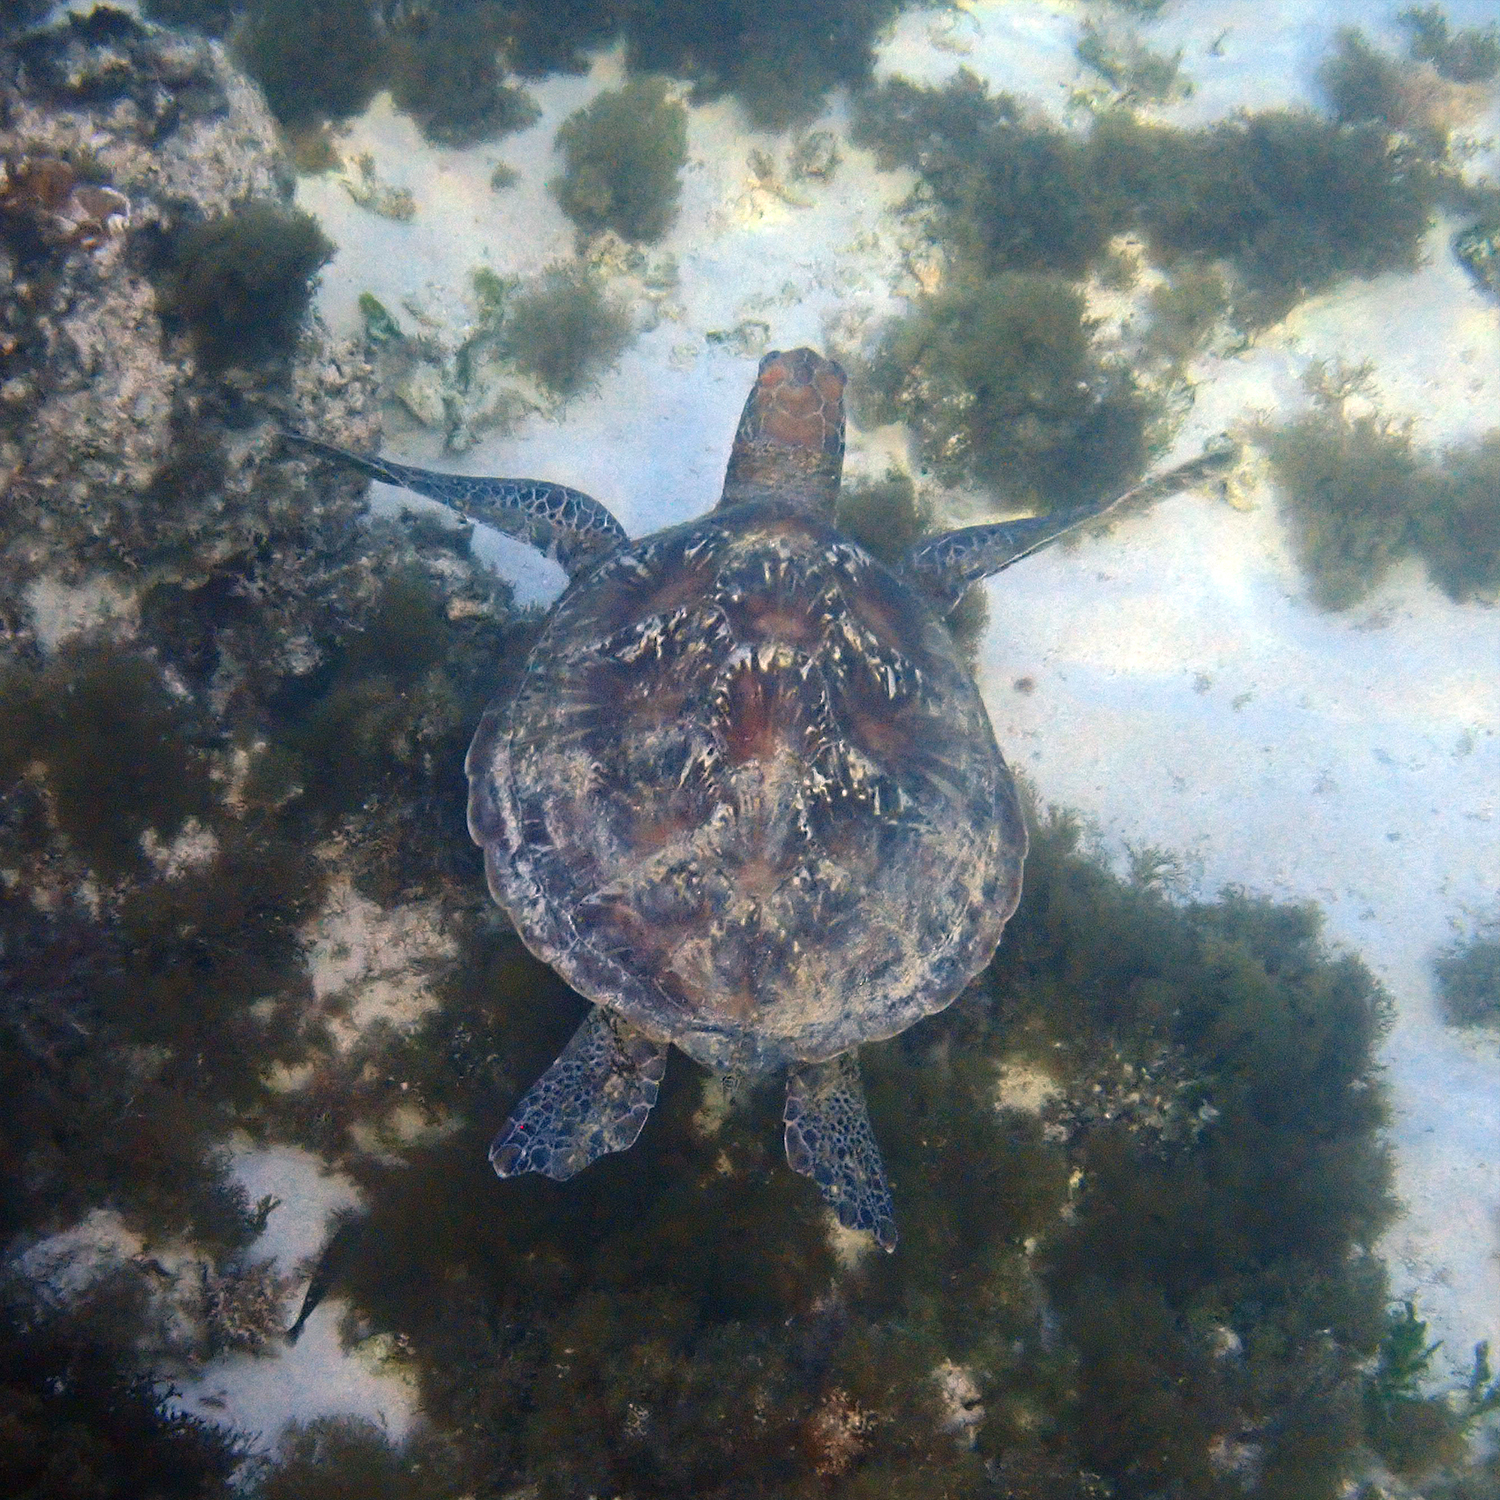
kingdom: Animalia
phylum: Chordata
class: Testudines
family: Cheloniidae
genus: Chelonia
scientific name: Chelonia mydas
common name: Green turtle
